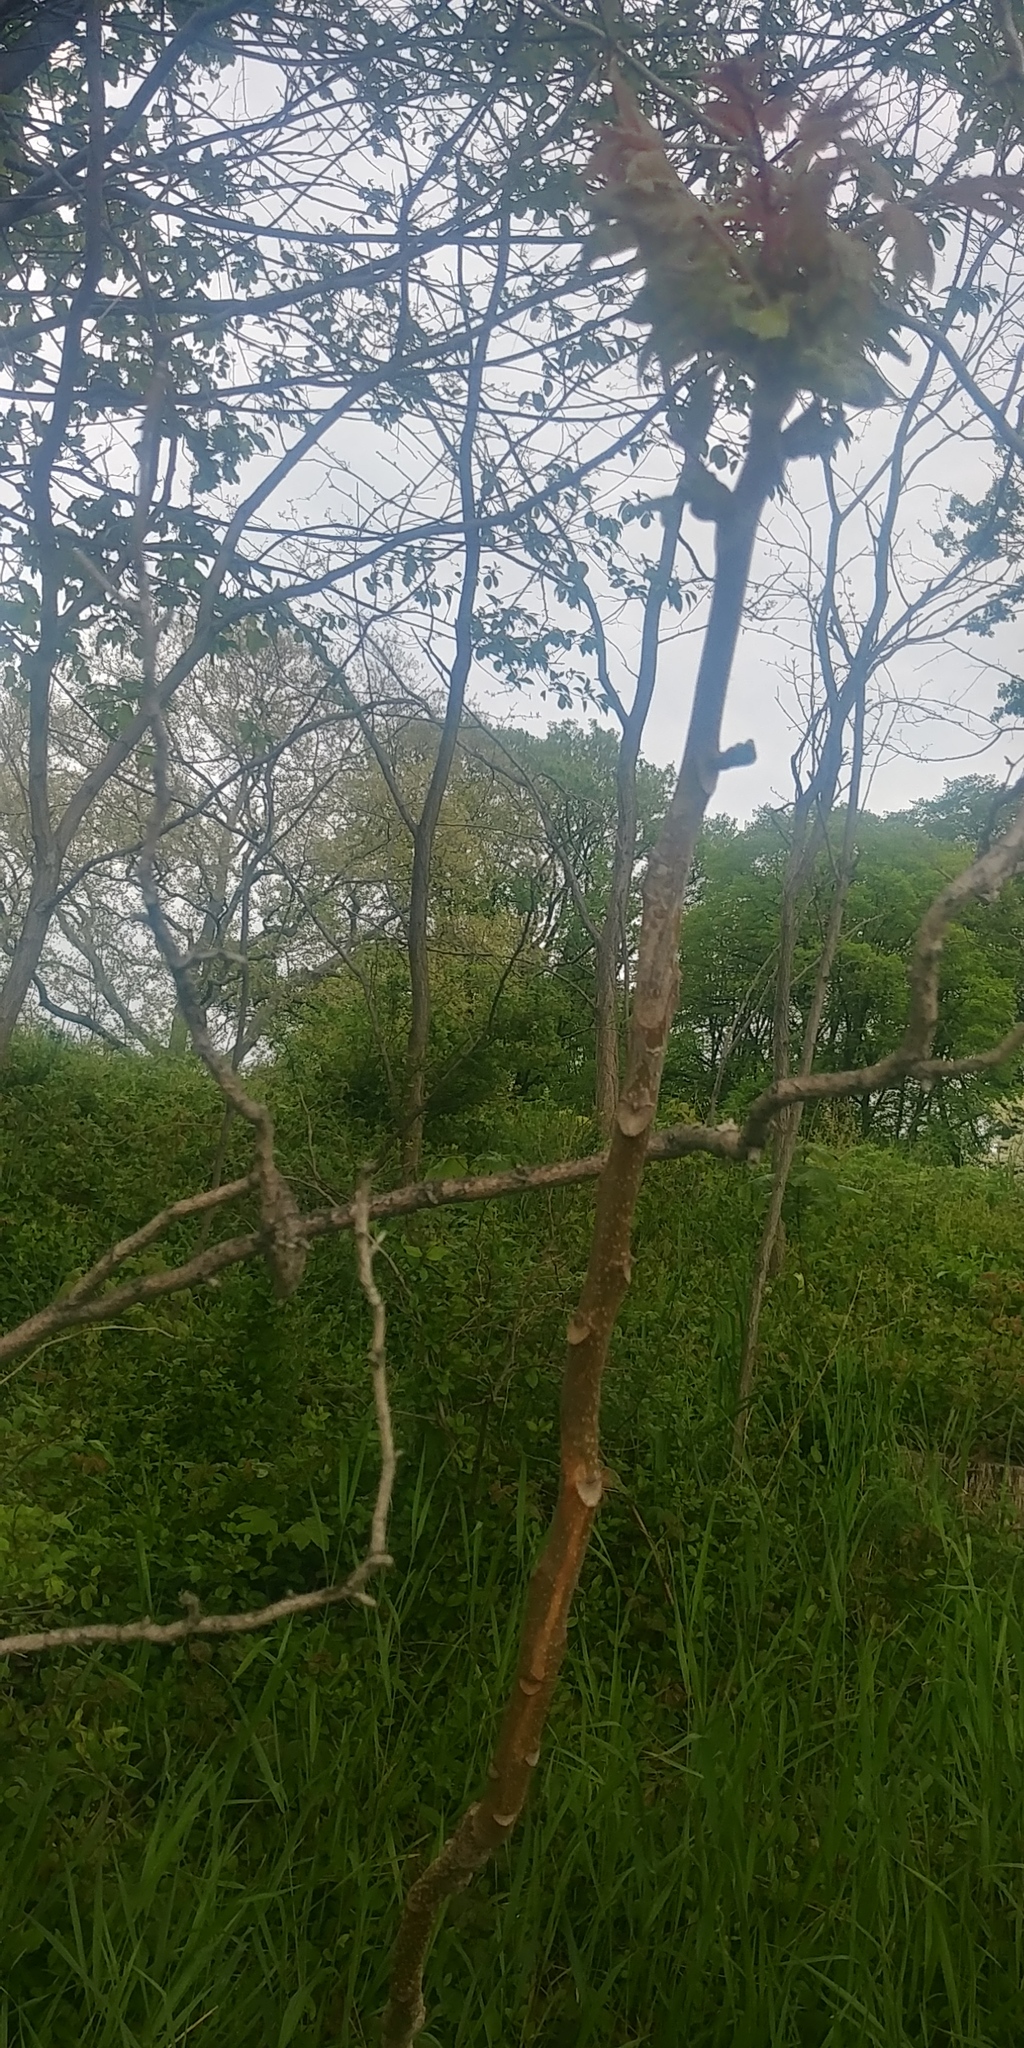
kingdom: Plantae
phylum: Tracheophyta
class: Magnoliopsida
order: Sapindales
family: Simaroubaceae
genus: Ailanthus
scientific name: Ailanthus altissima
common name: Tree-of-heaven
